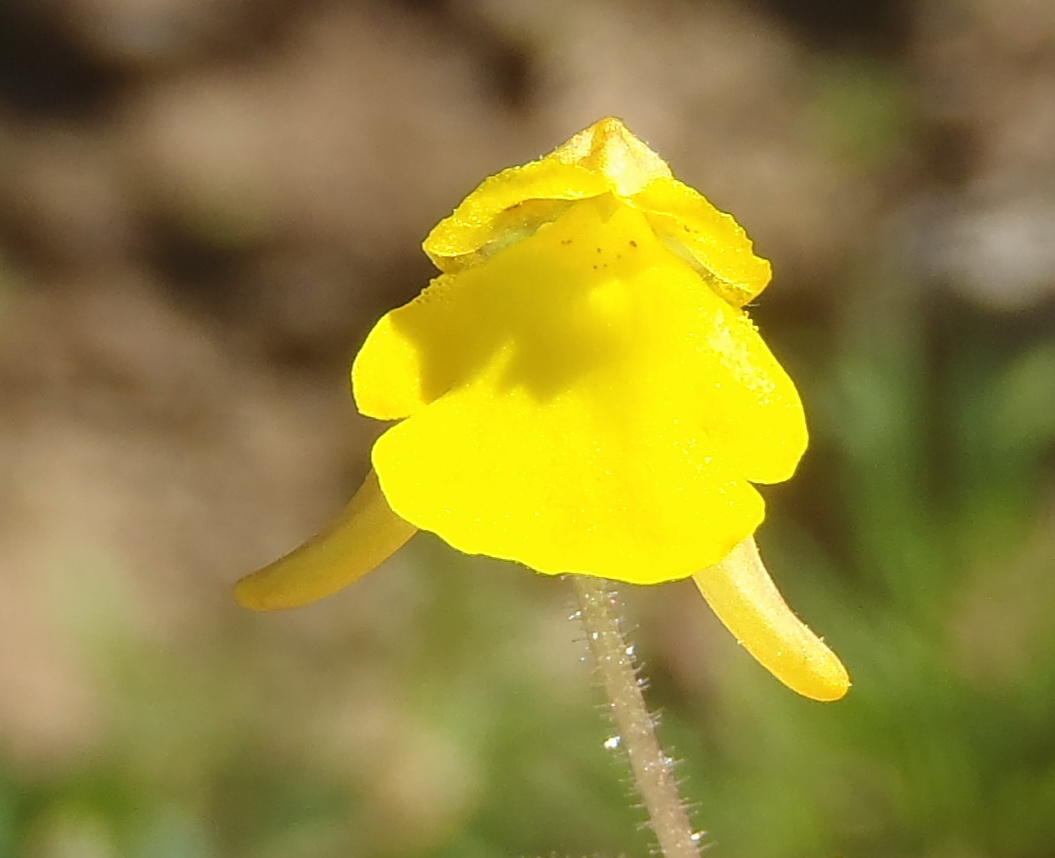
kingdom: Plantae
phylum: Tracheophyta
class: Magnoliopsida
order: Lamiales
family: Scrophulariaceae
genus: Hemimeris
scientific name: Hemimeris gracilis
